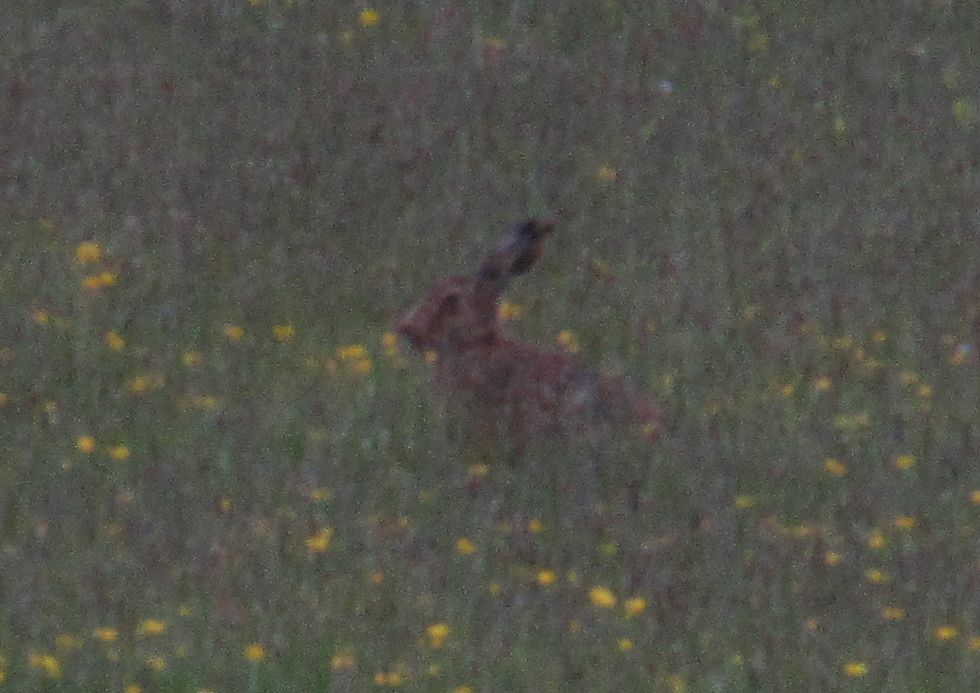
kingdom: Animalia
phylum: Chordata
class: Mammalia
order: Lagomorpha
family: Leporidae
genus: Lepus
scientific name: Lepus europaeus
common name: European hare
